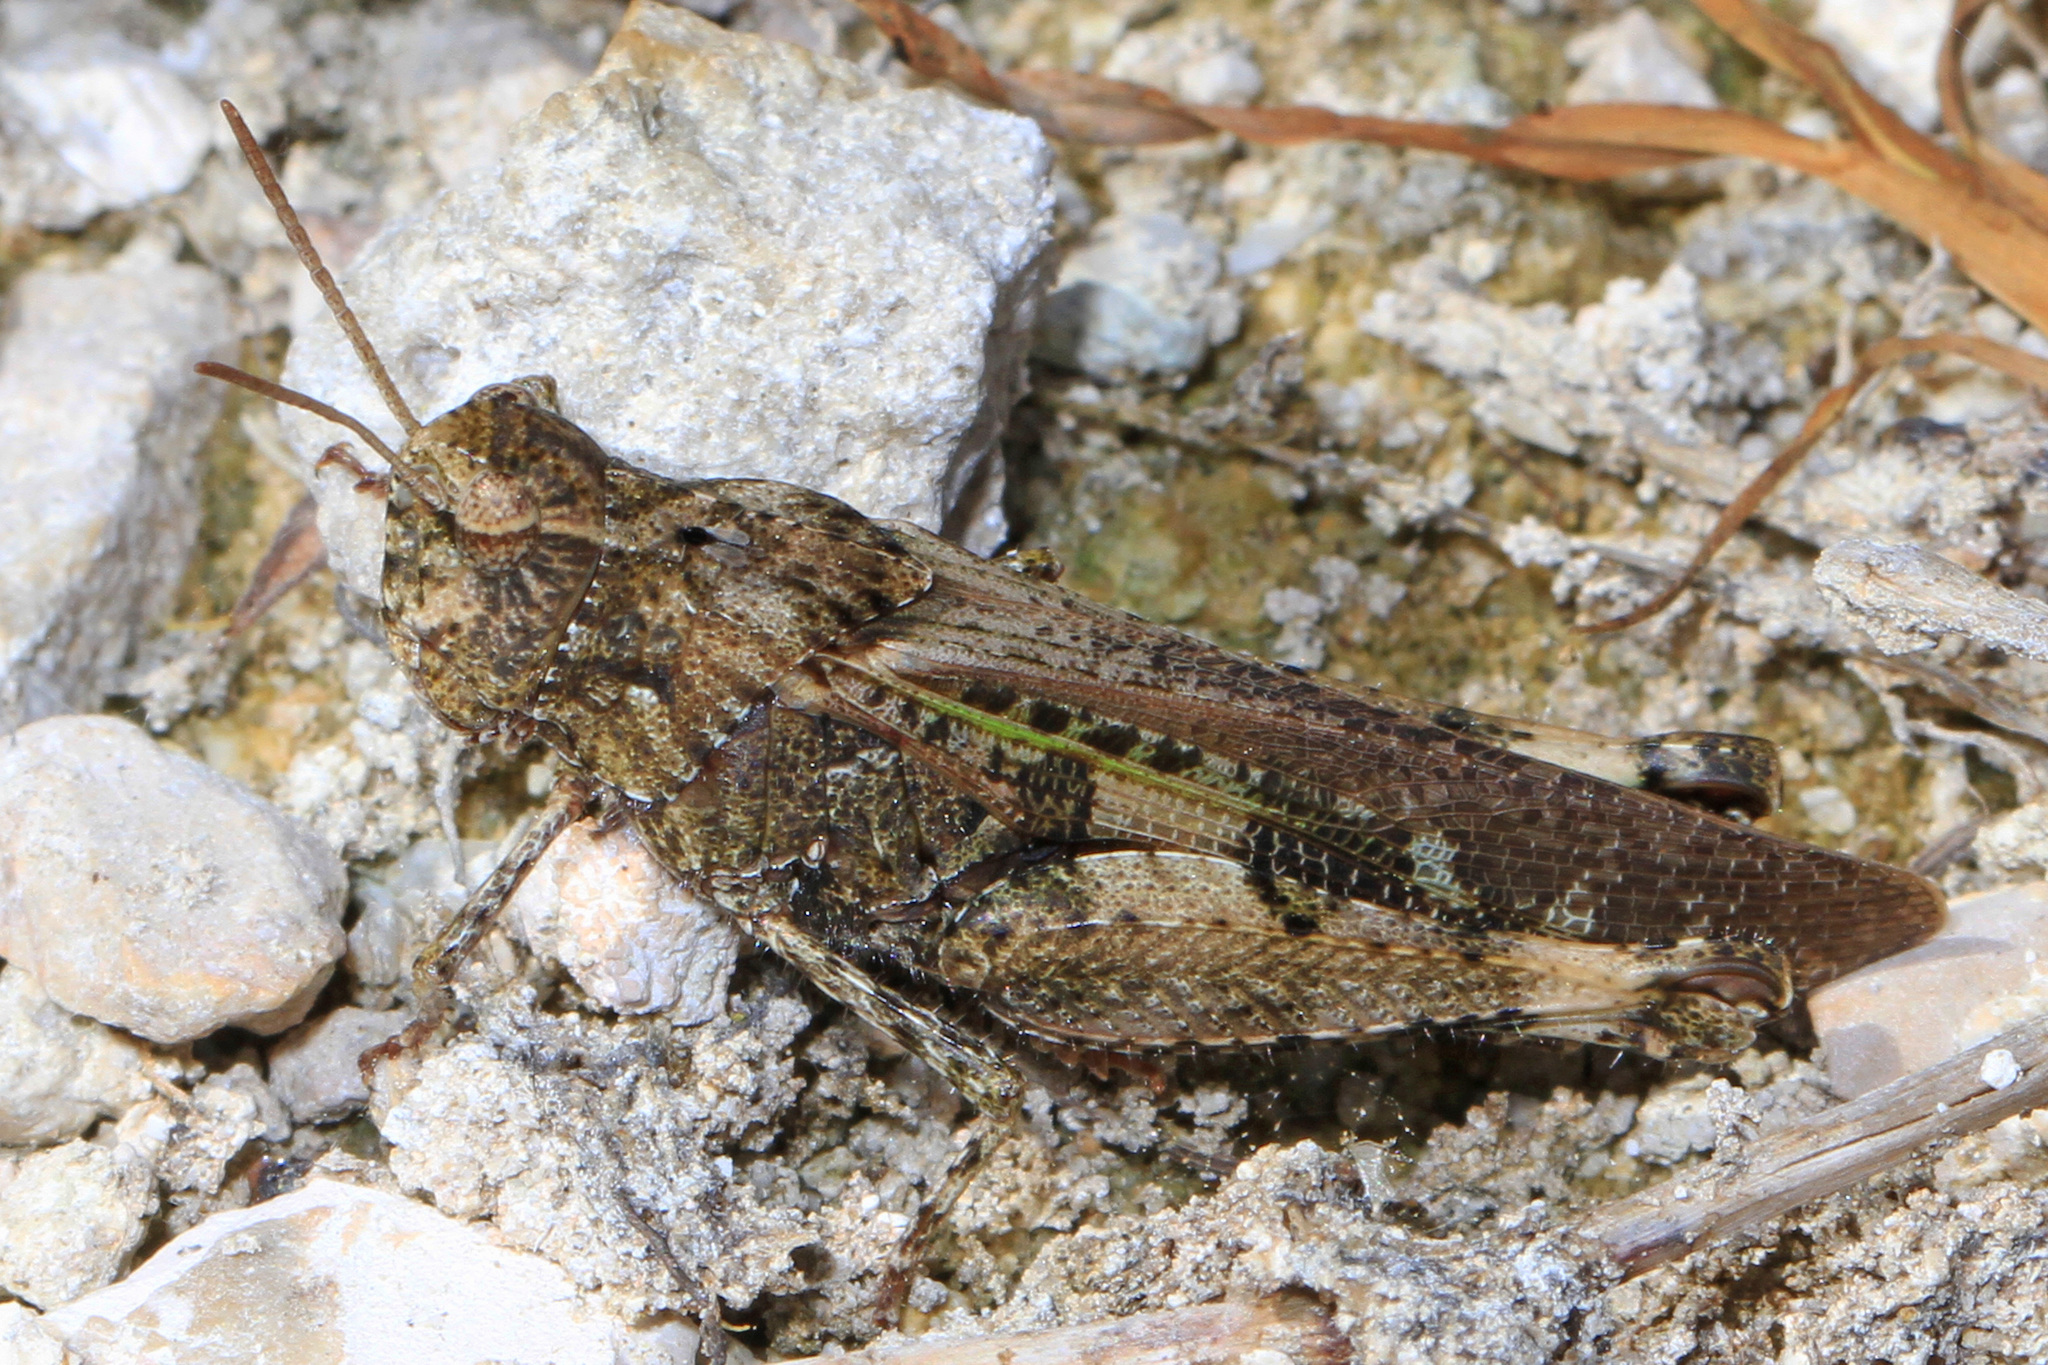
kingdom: Animalia
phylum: Arthropoda
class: Insecta
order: Orthoptera
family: Acrididae
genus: Chortophaga
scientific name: Chortophaga australior
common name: Southern green-striped grasshopper
